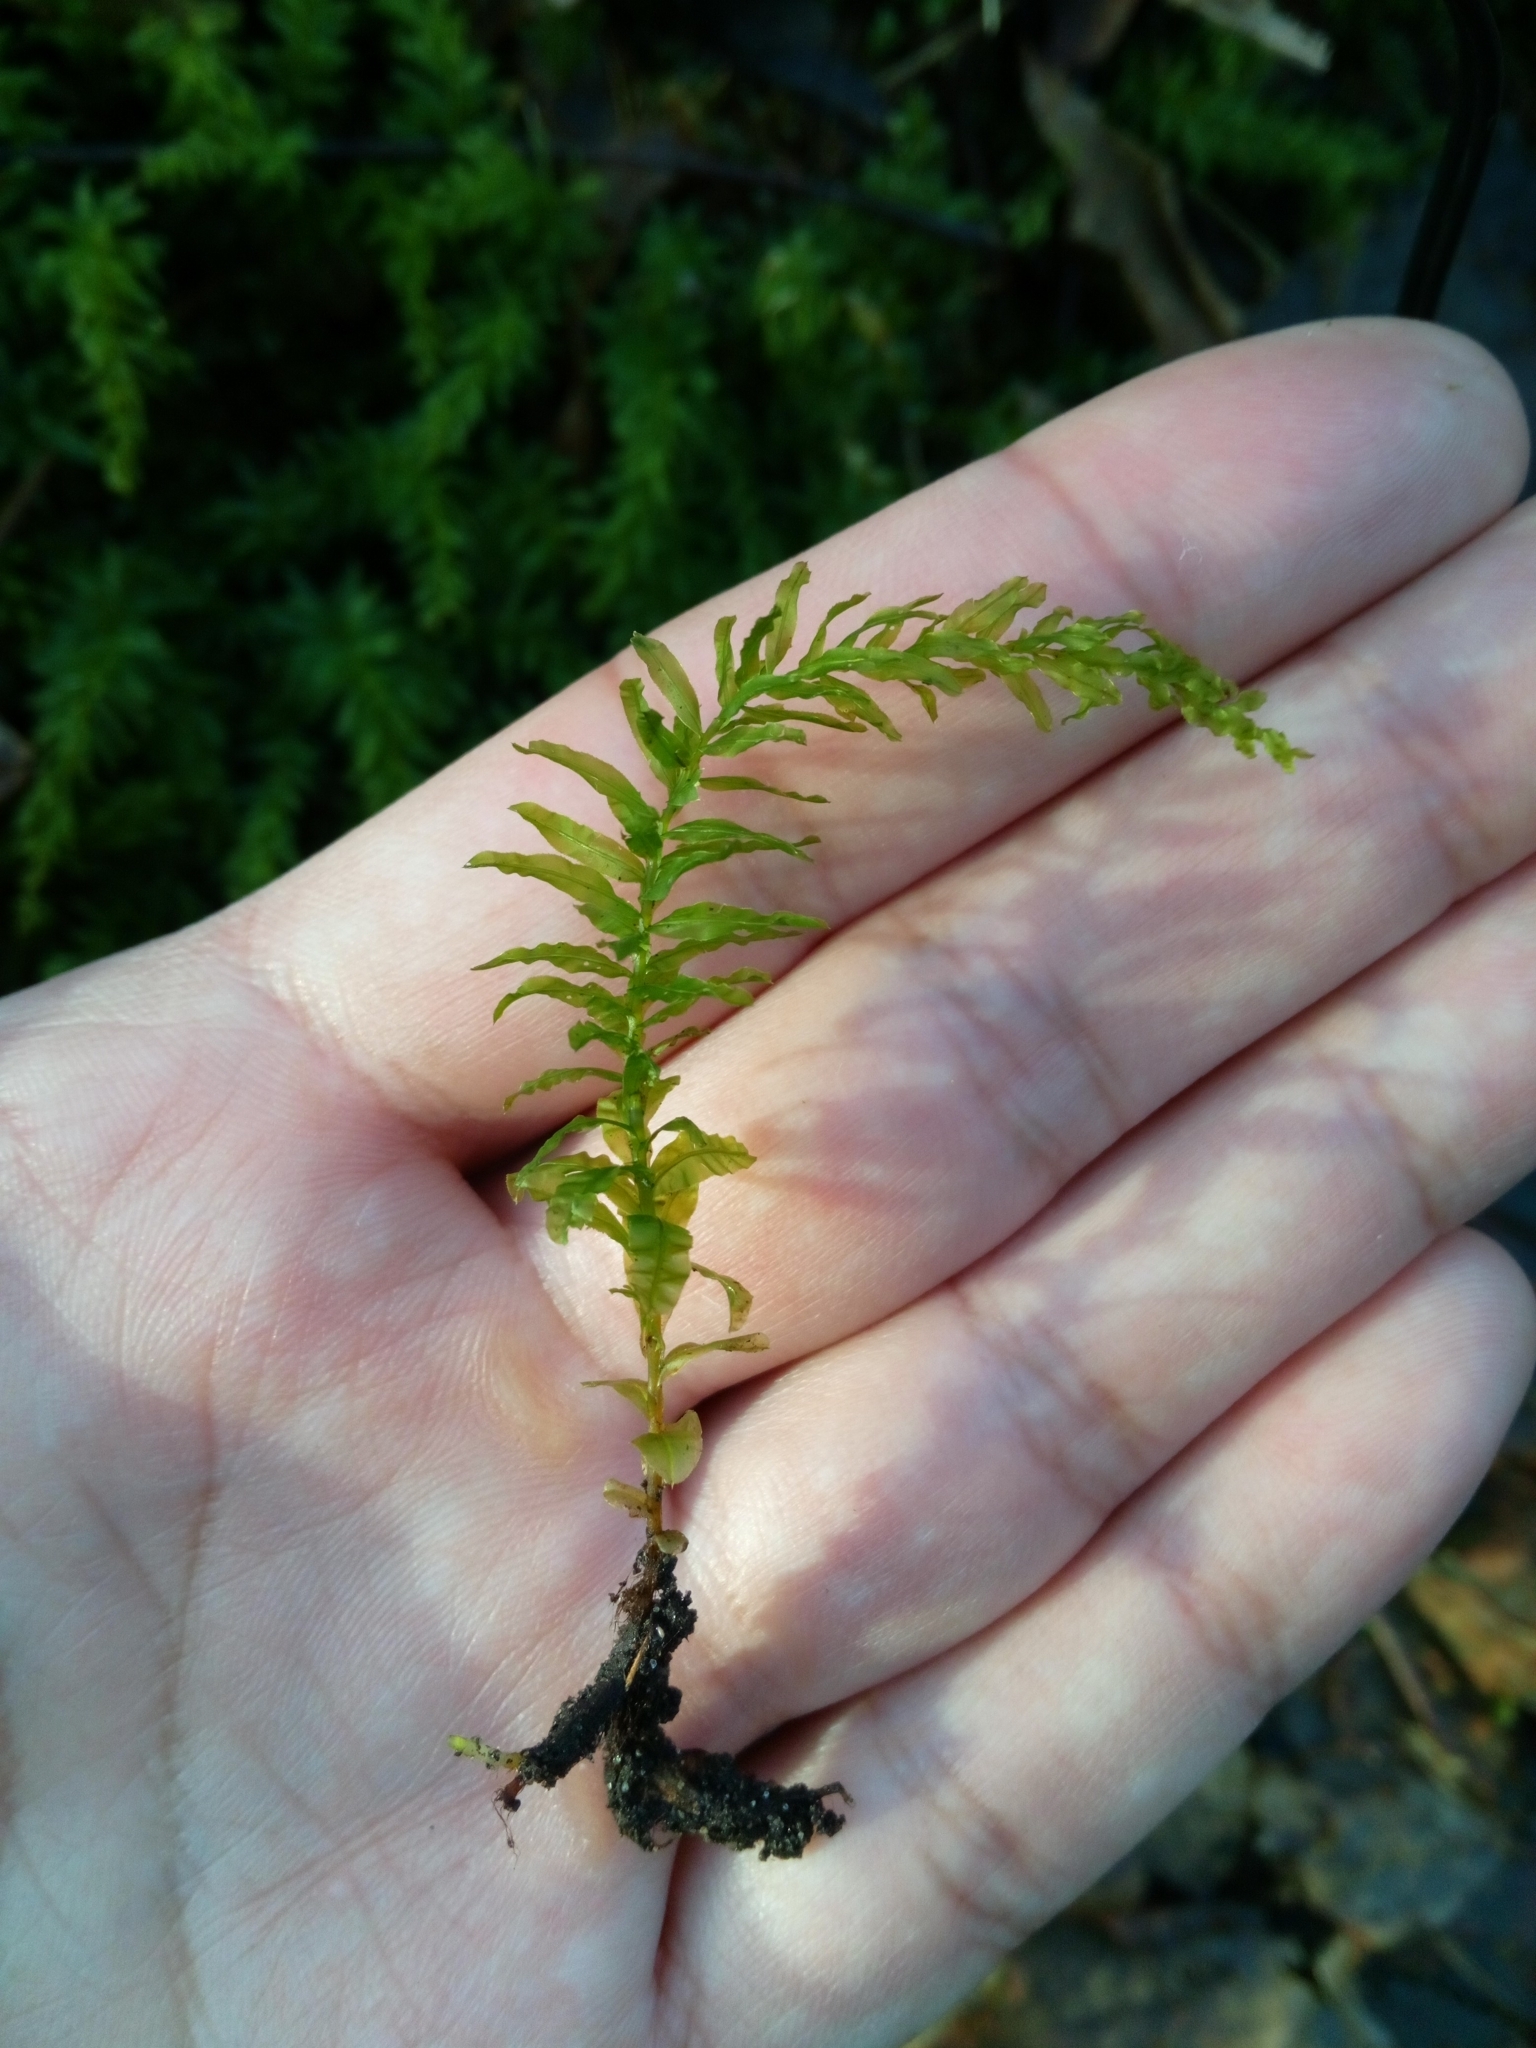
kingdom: Plantae
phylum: Bryophyta
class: Bryopsida
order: Bryales
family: Mniaceae
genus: Plagiomnium
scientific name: Plagiomnium undulatum
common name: Hart's-tongue thyme-moss
